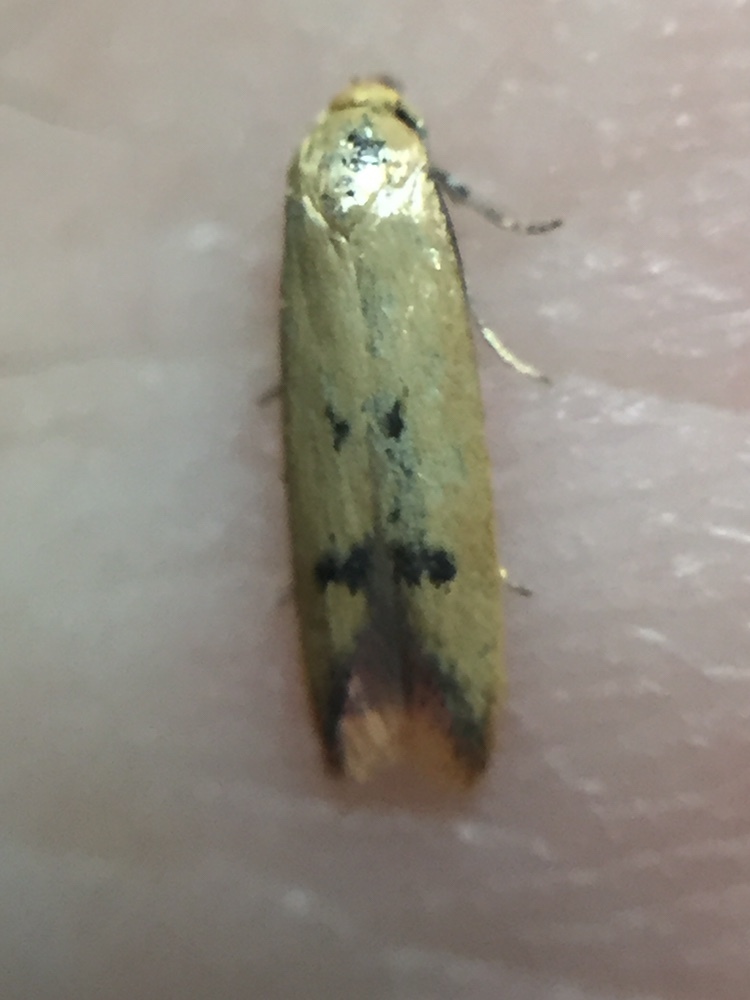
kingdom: Animalia
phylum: Arthropoda
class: Insecta
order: Lepidoptera
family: Oecophoridae
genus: Tachystola
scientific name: Tachystola hemisema
